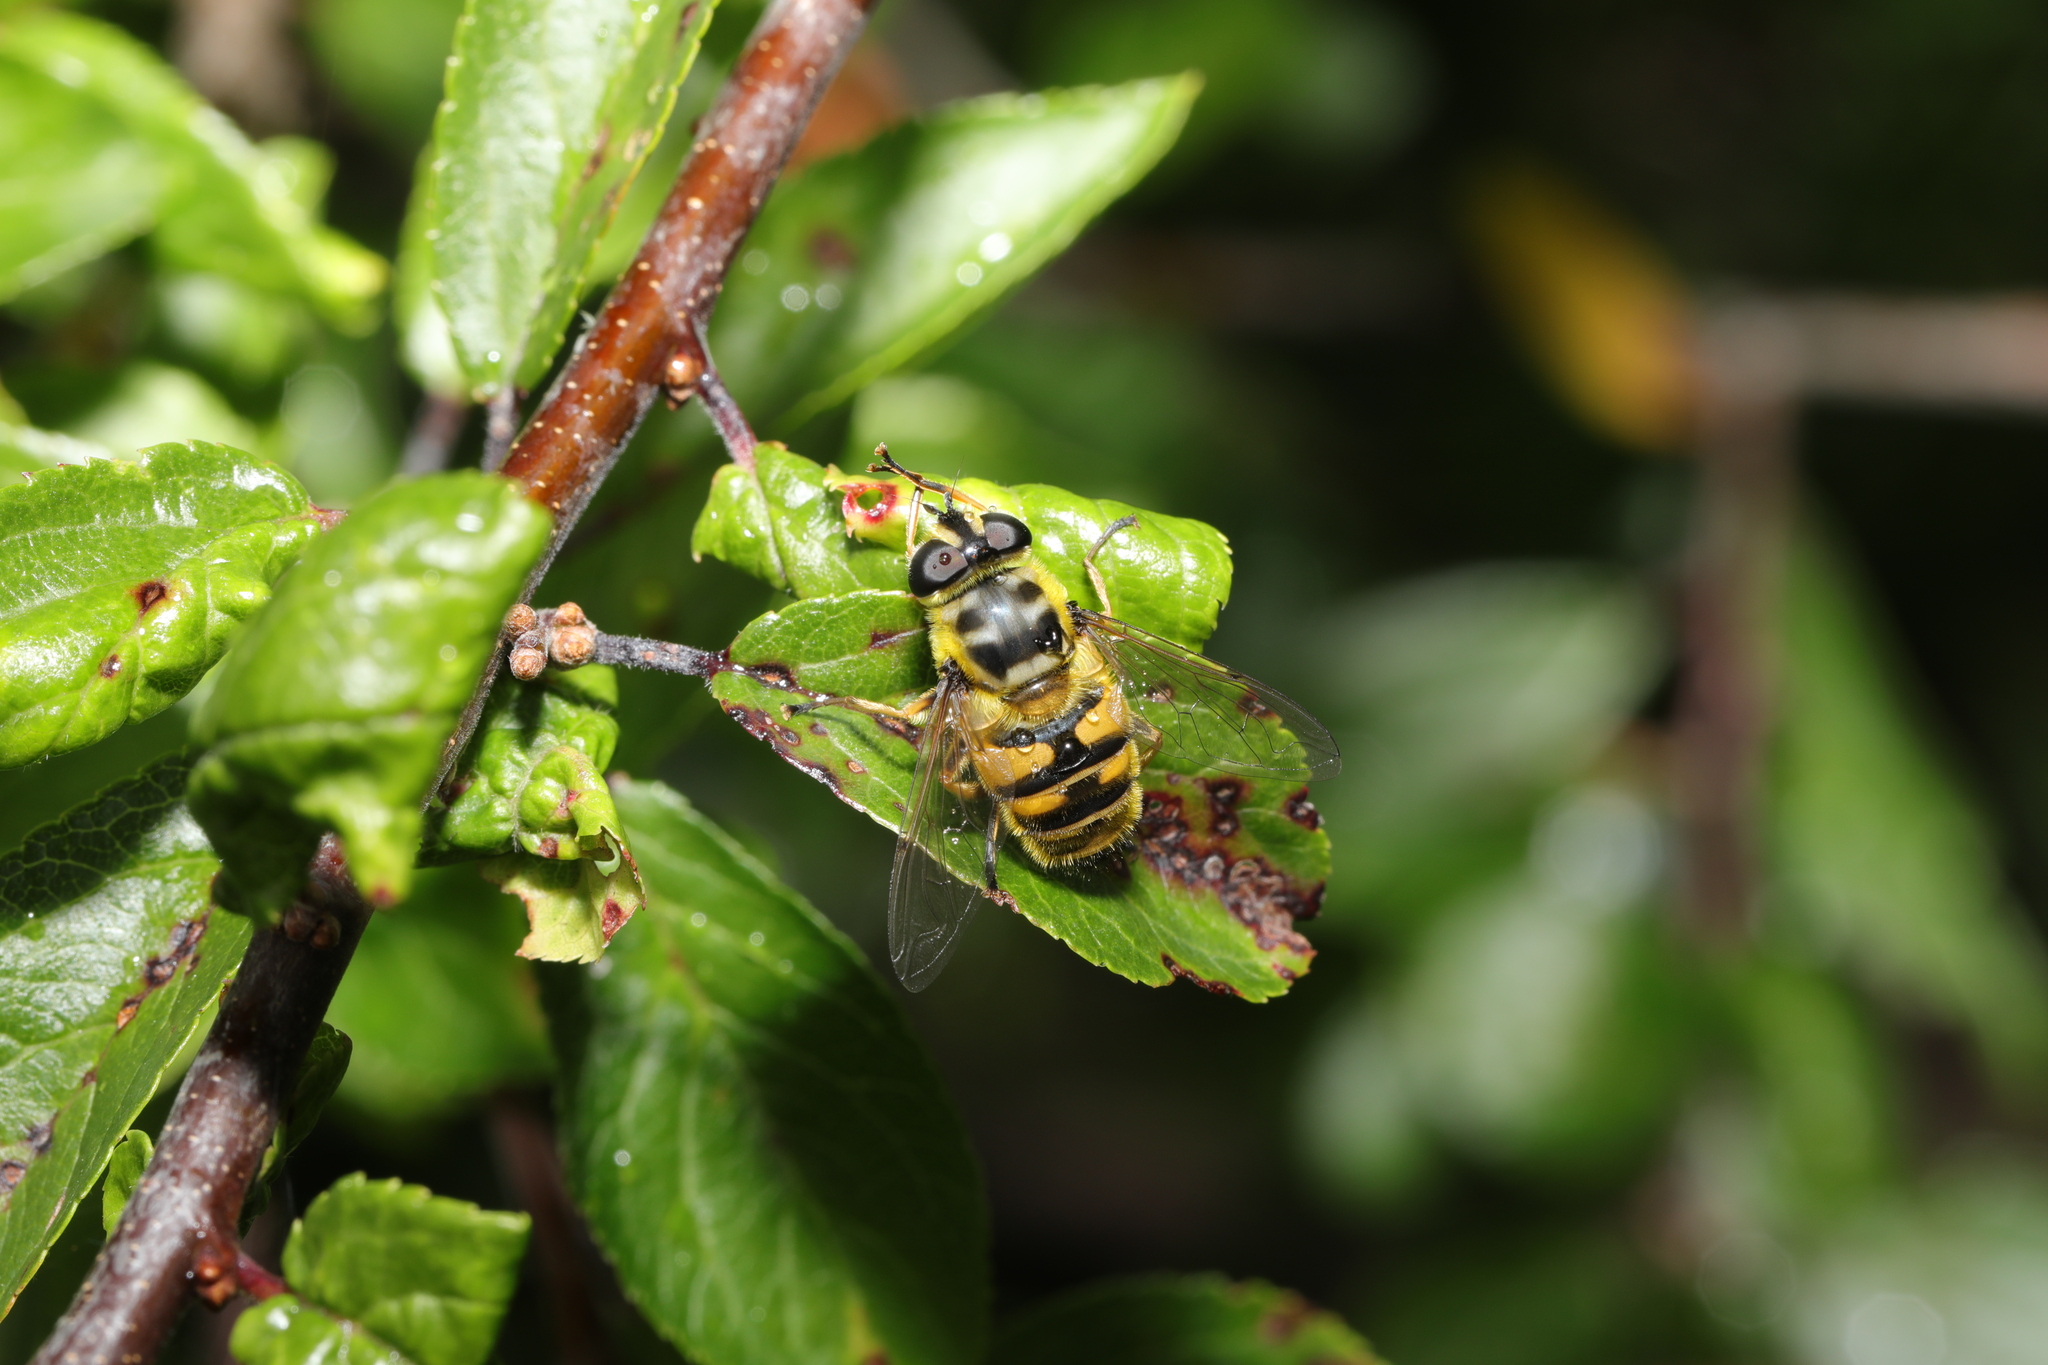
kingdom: Animalia
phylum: Arthropoda
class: Insecta
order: Diptera
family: Syrphidae
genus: Myathropa
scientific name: Myathropa florea
